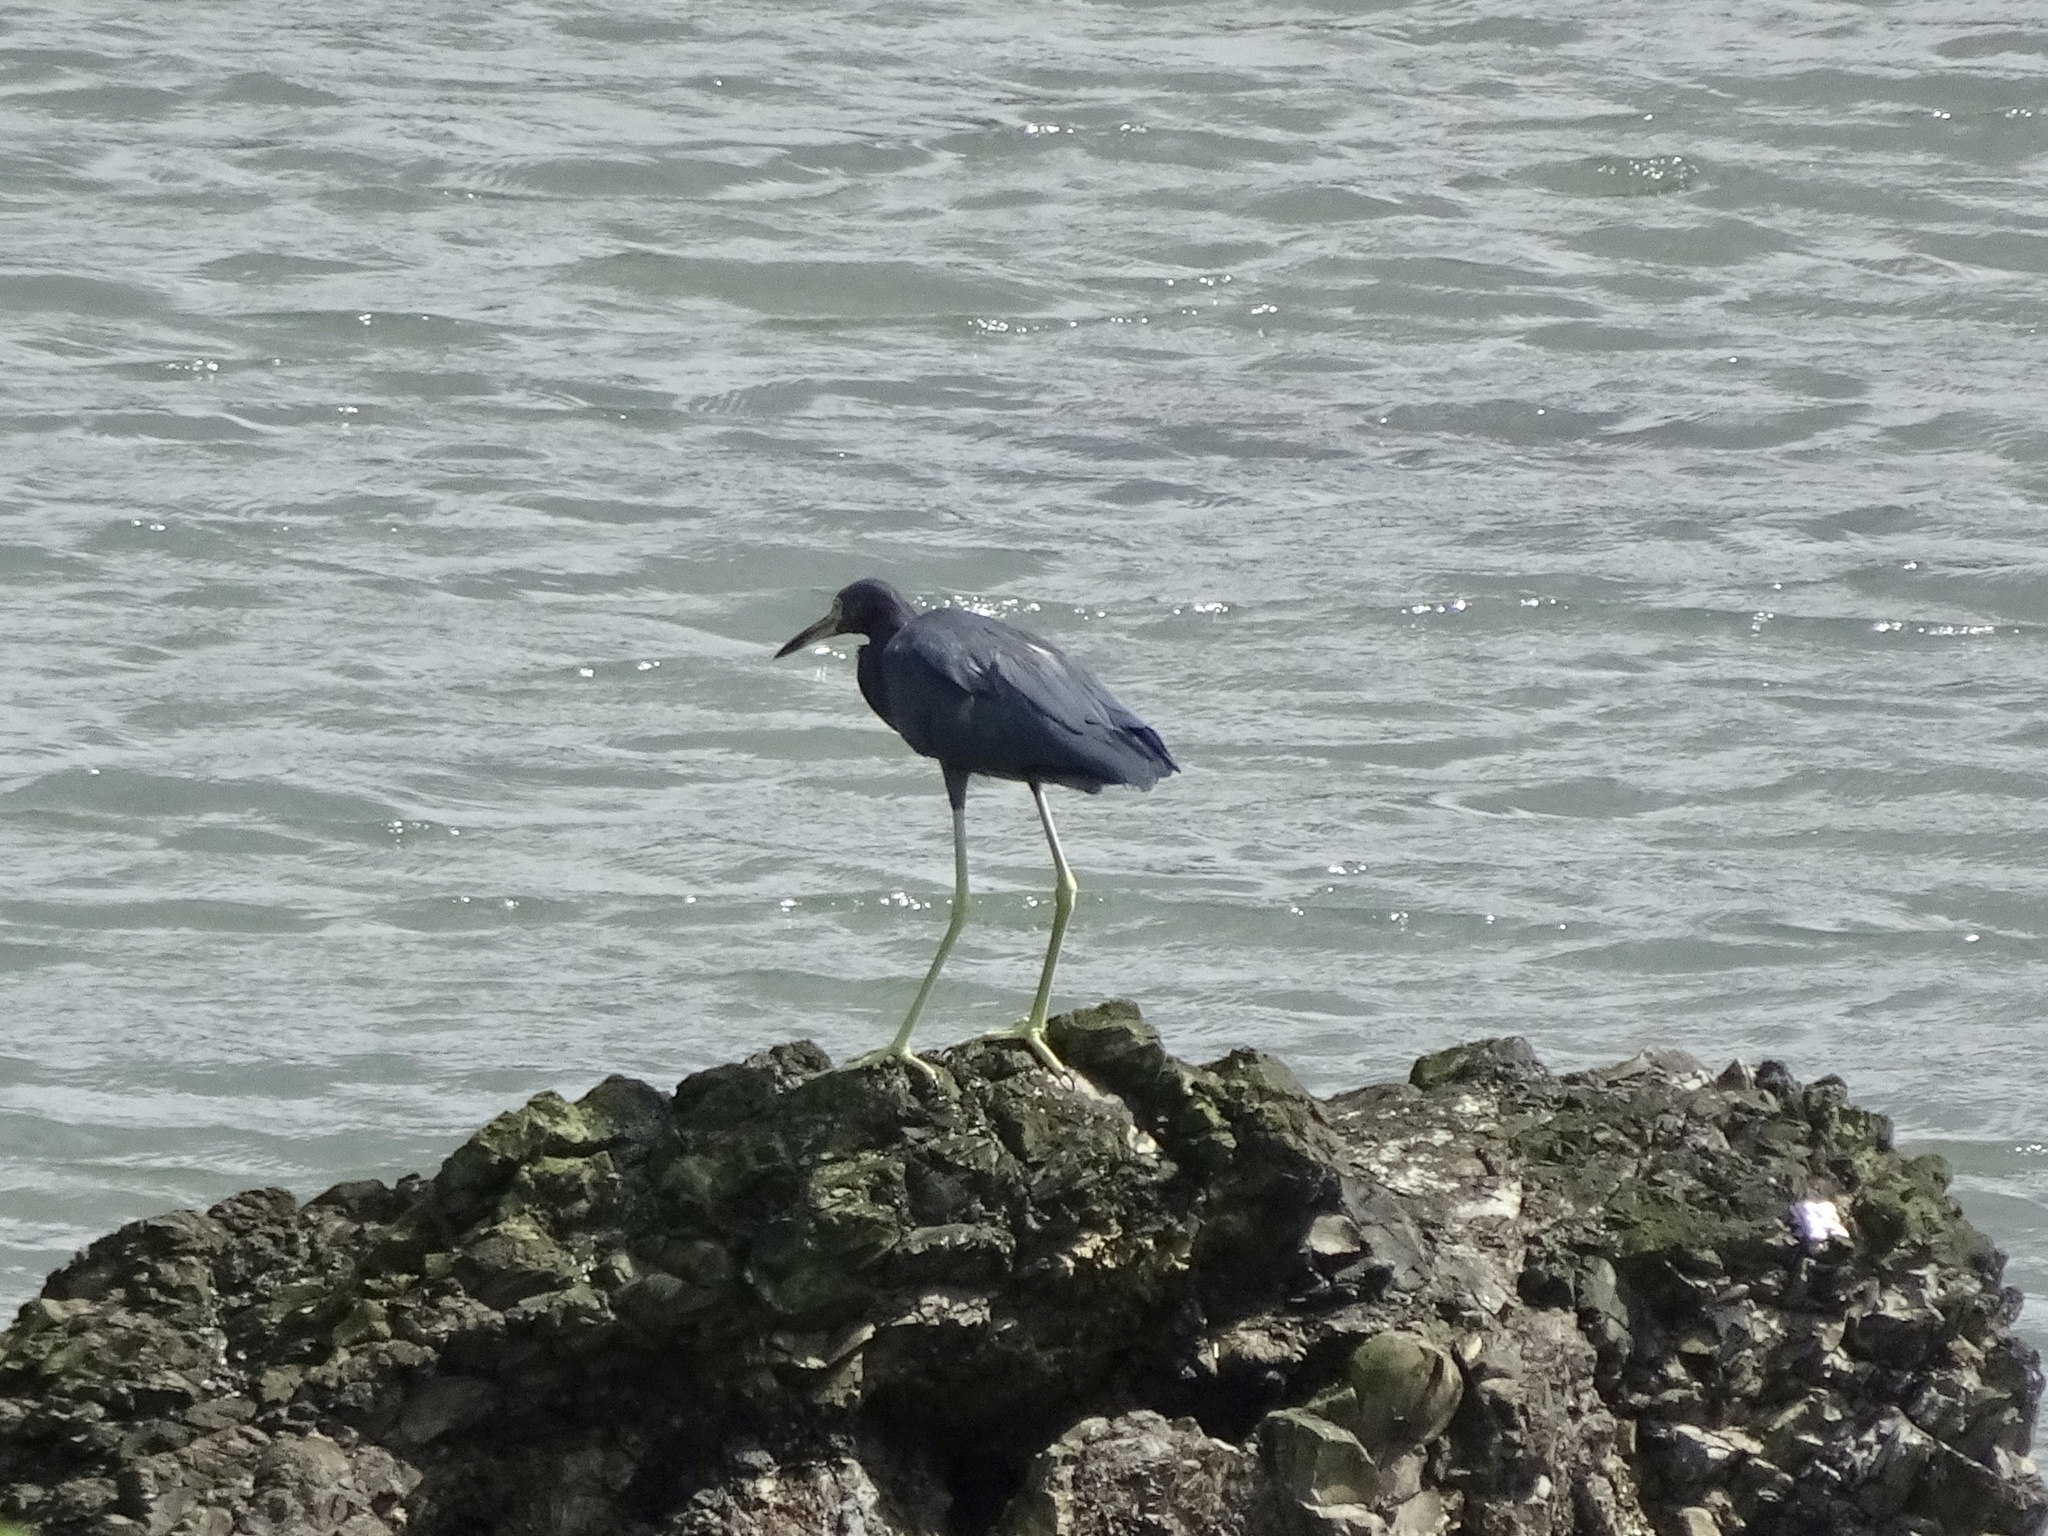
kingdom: Animalia
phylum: Chordata
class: Aves
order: Pelecaniformes
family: Ardeidae
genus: Egretta
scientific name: Egretta caerulea
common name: Little blue heron
